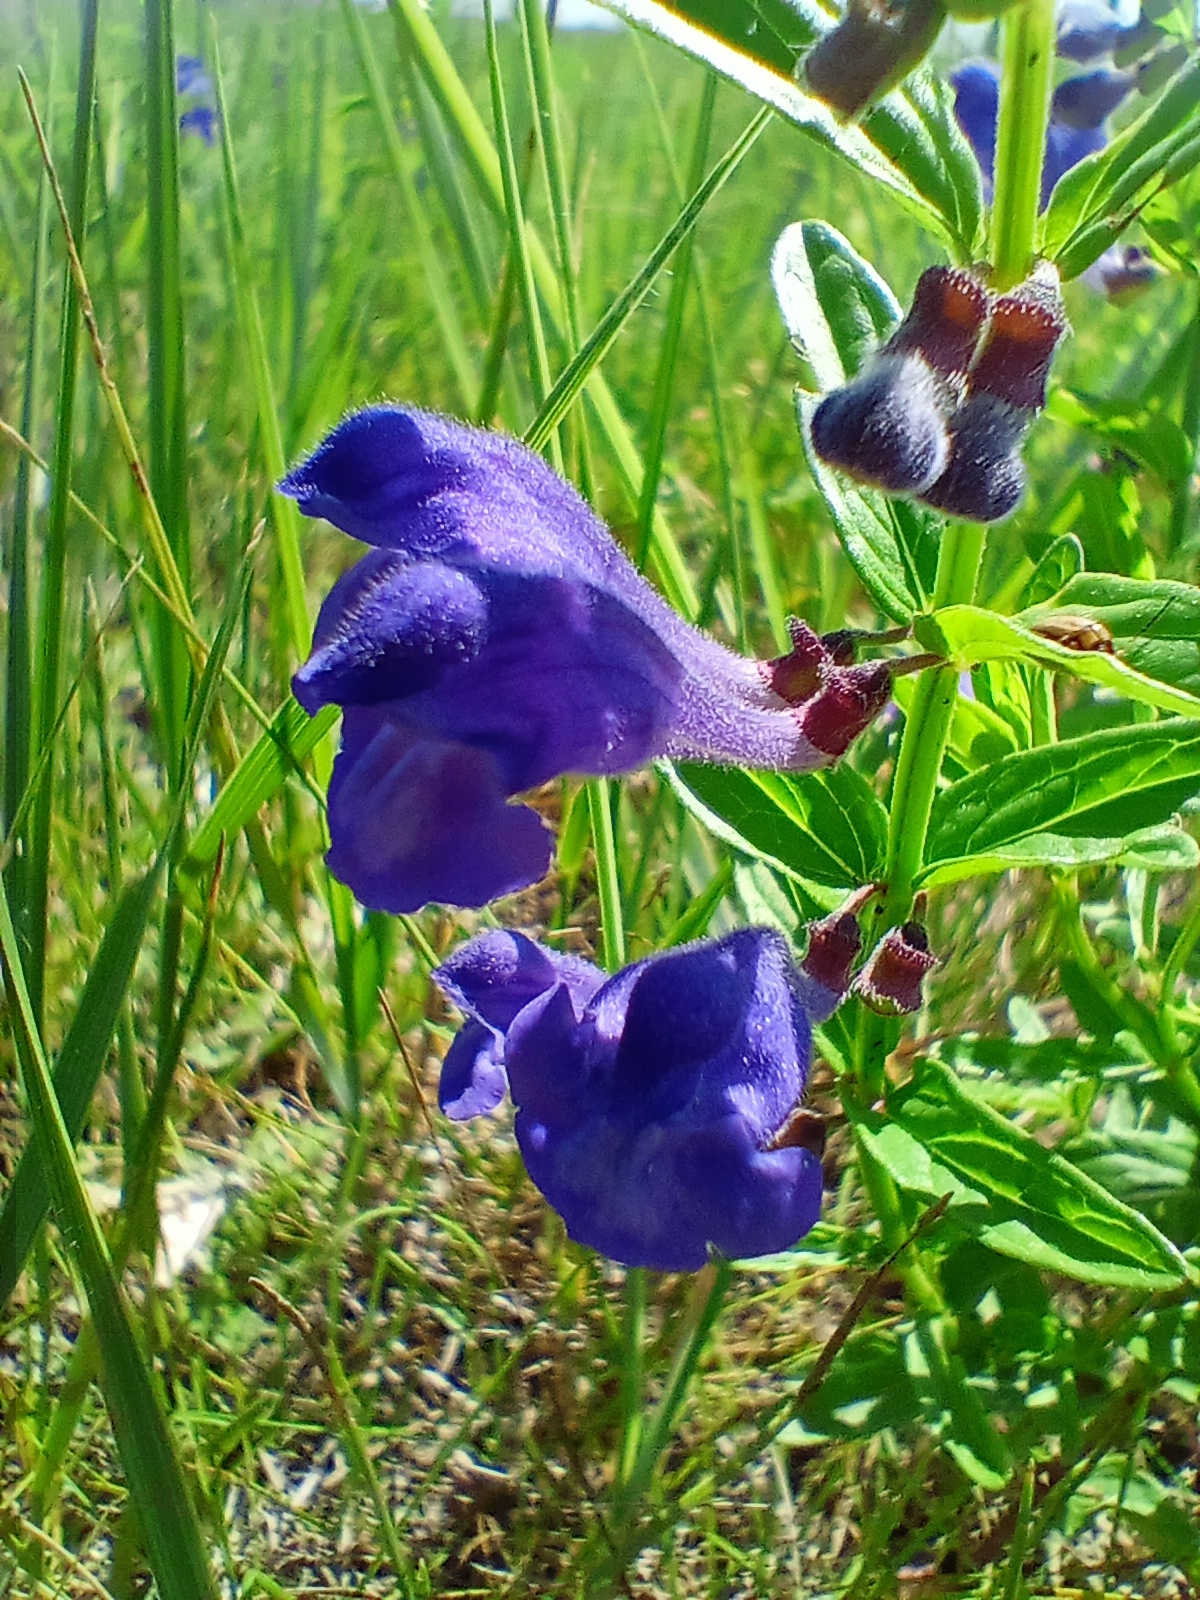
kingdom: Plantae
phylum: Tracheophyta
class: Magnoliopsida
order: Lamiales
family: Lamiaceae
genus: Scutellaria
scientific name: Scutellaria scordiifolia
